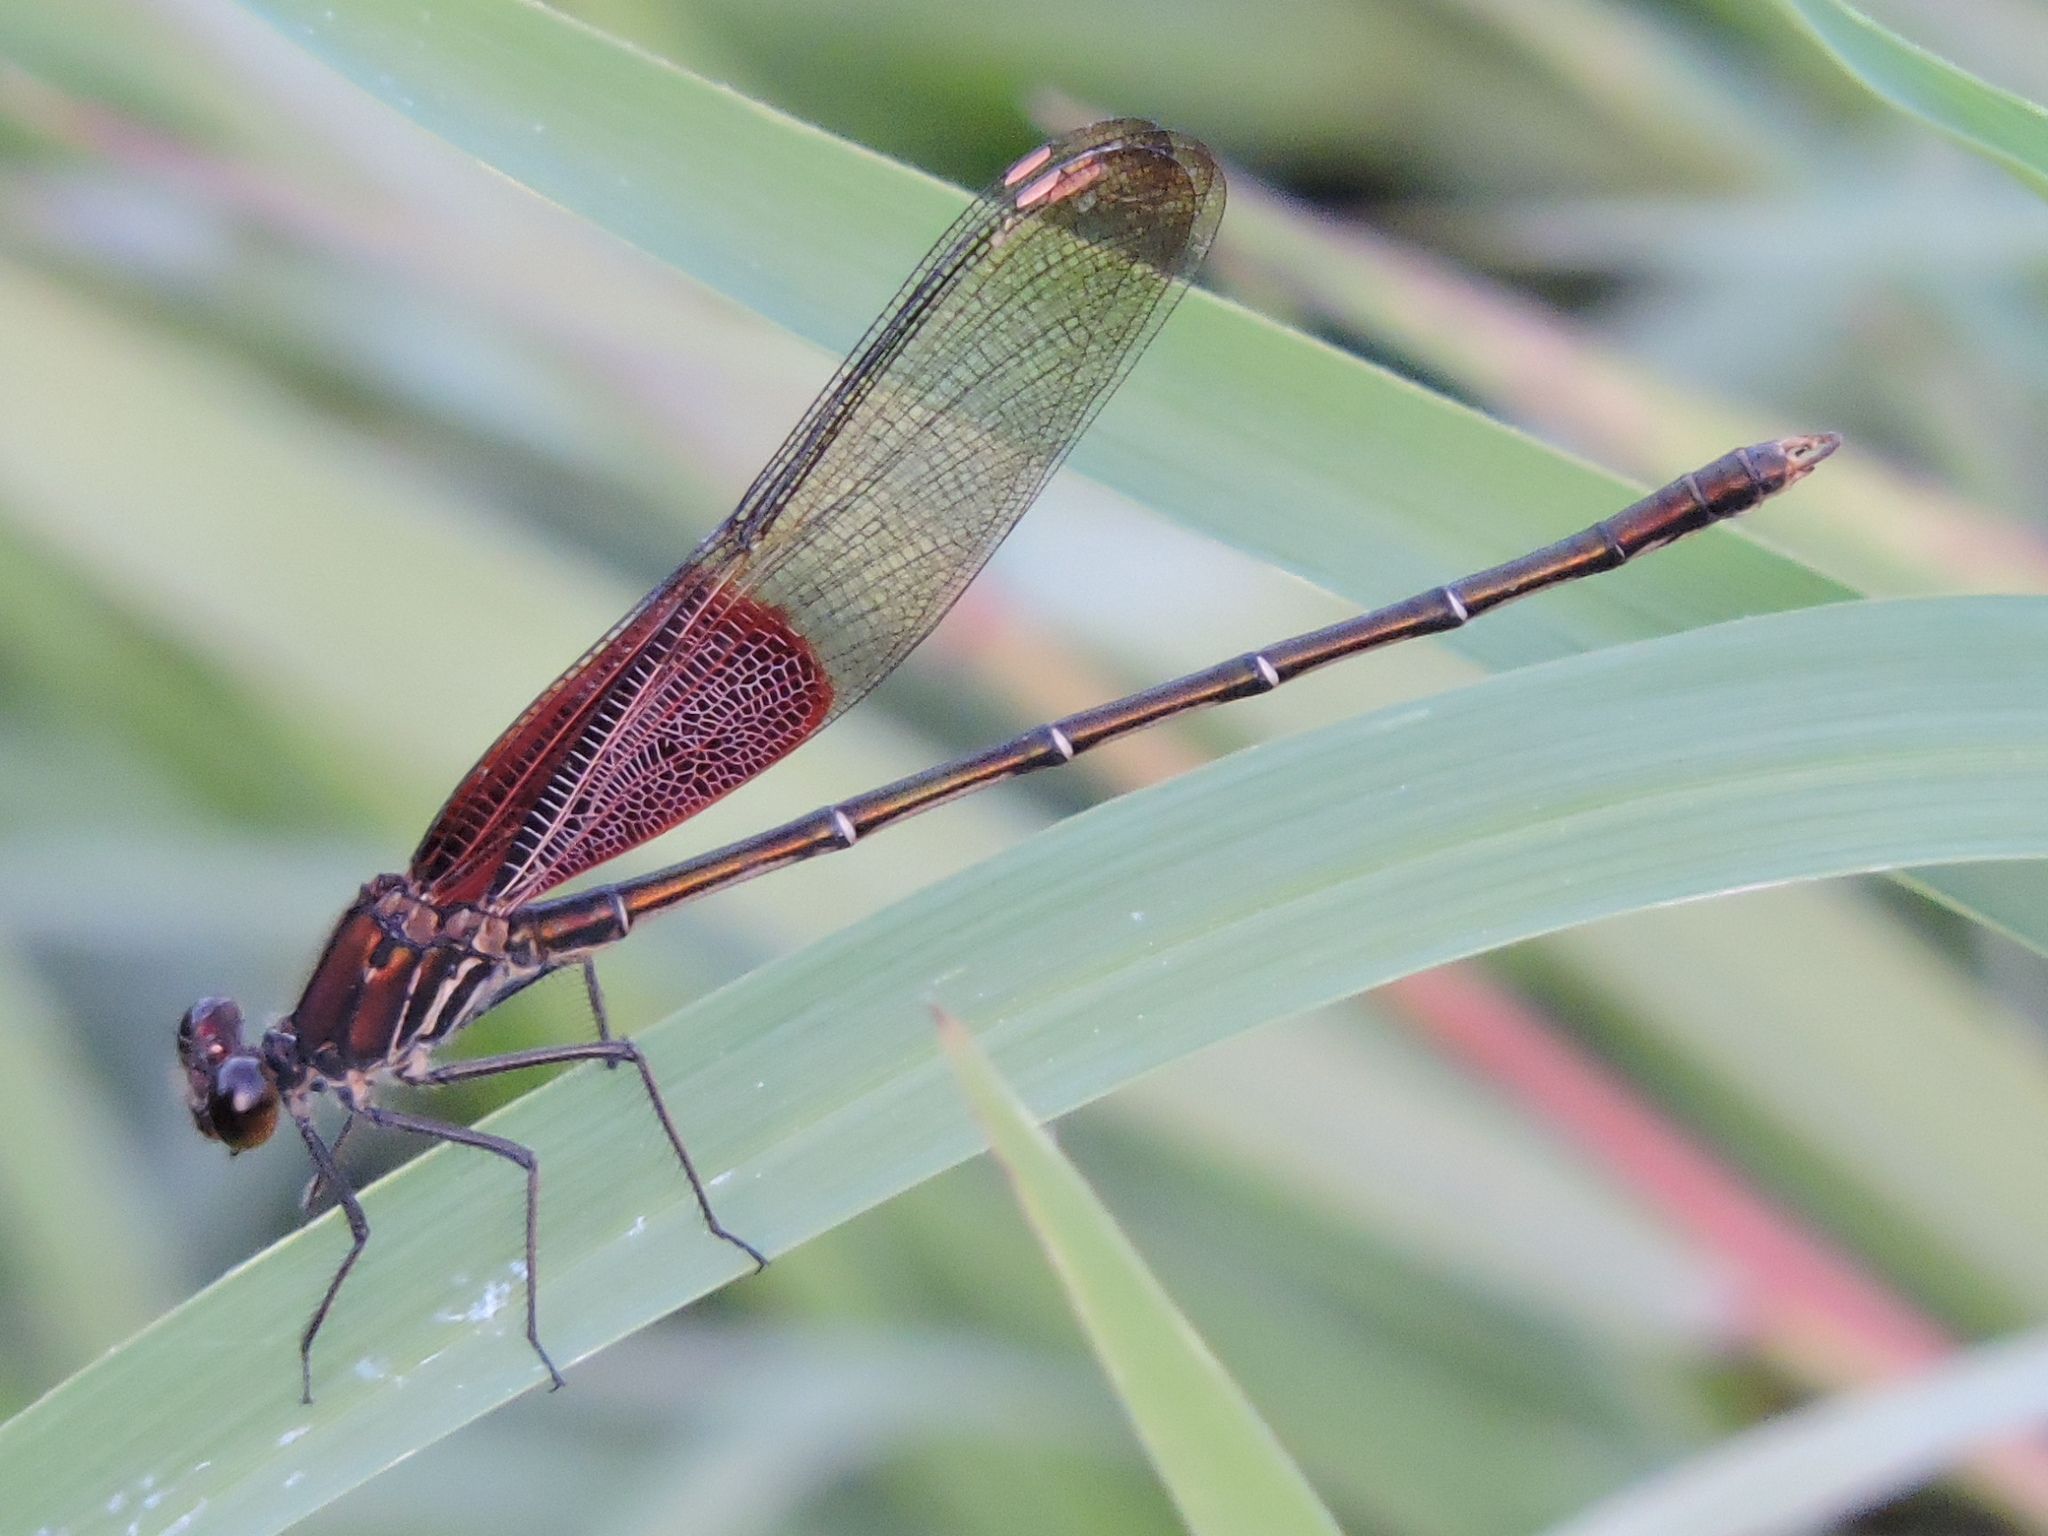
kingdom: Animalia
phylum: Arthropoda
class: Insecta
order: Odonata
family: Calopterygidae
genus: Hetaerina
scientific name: Hetaerina americana
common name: American rubyspot
